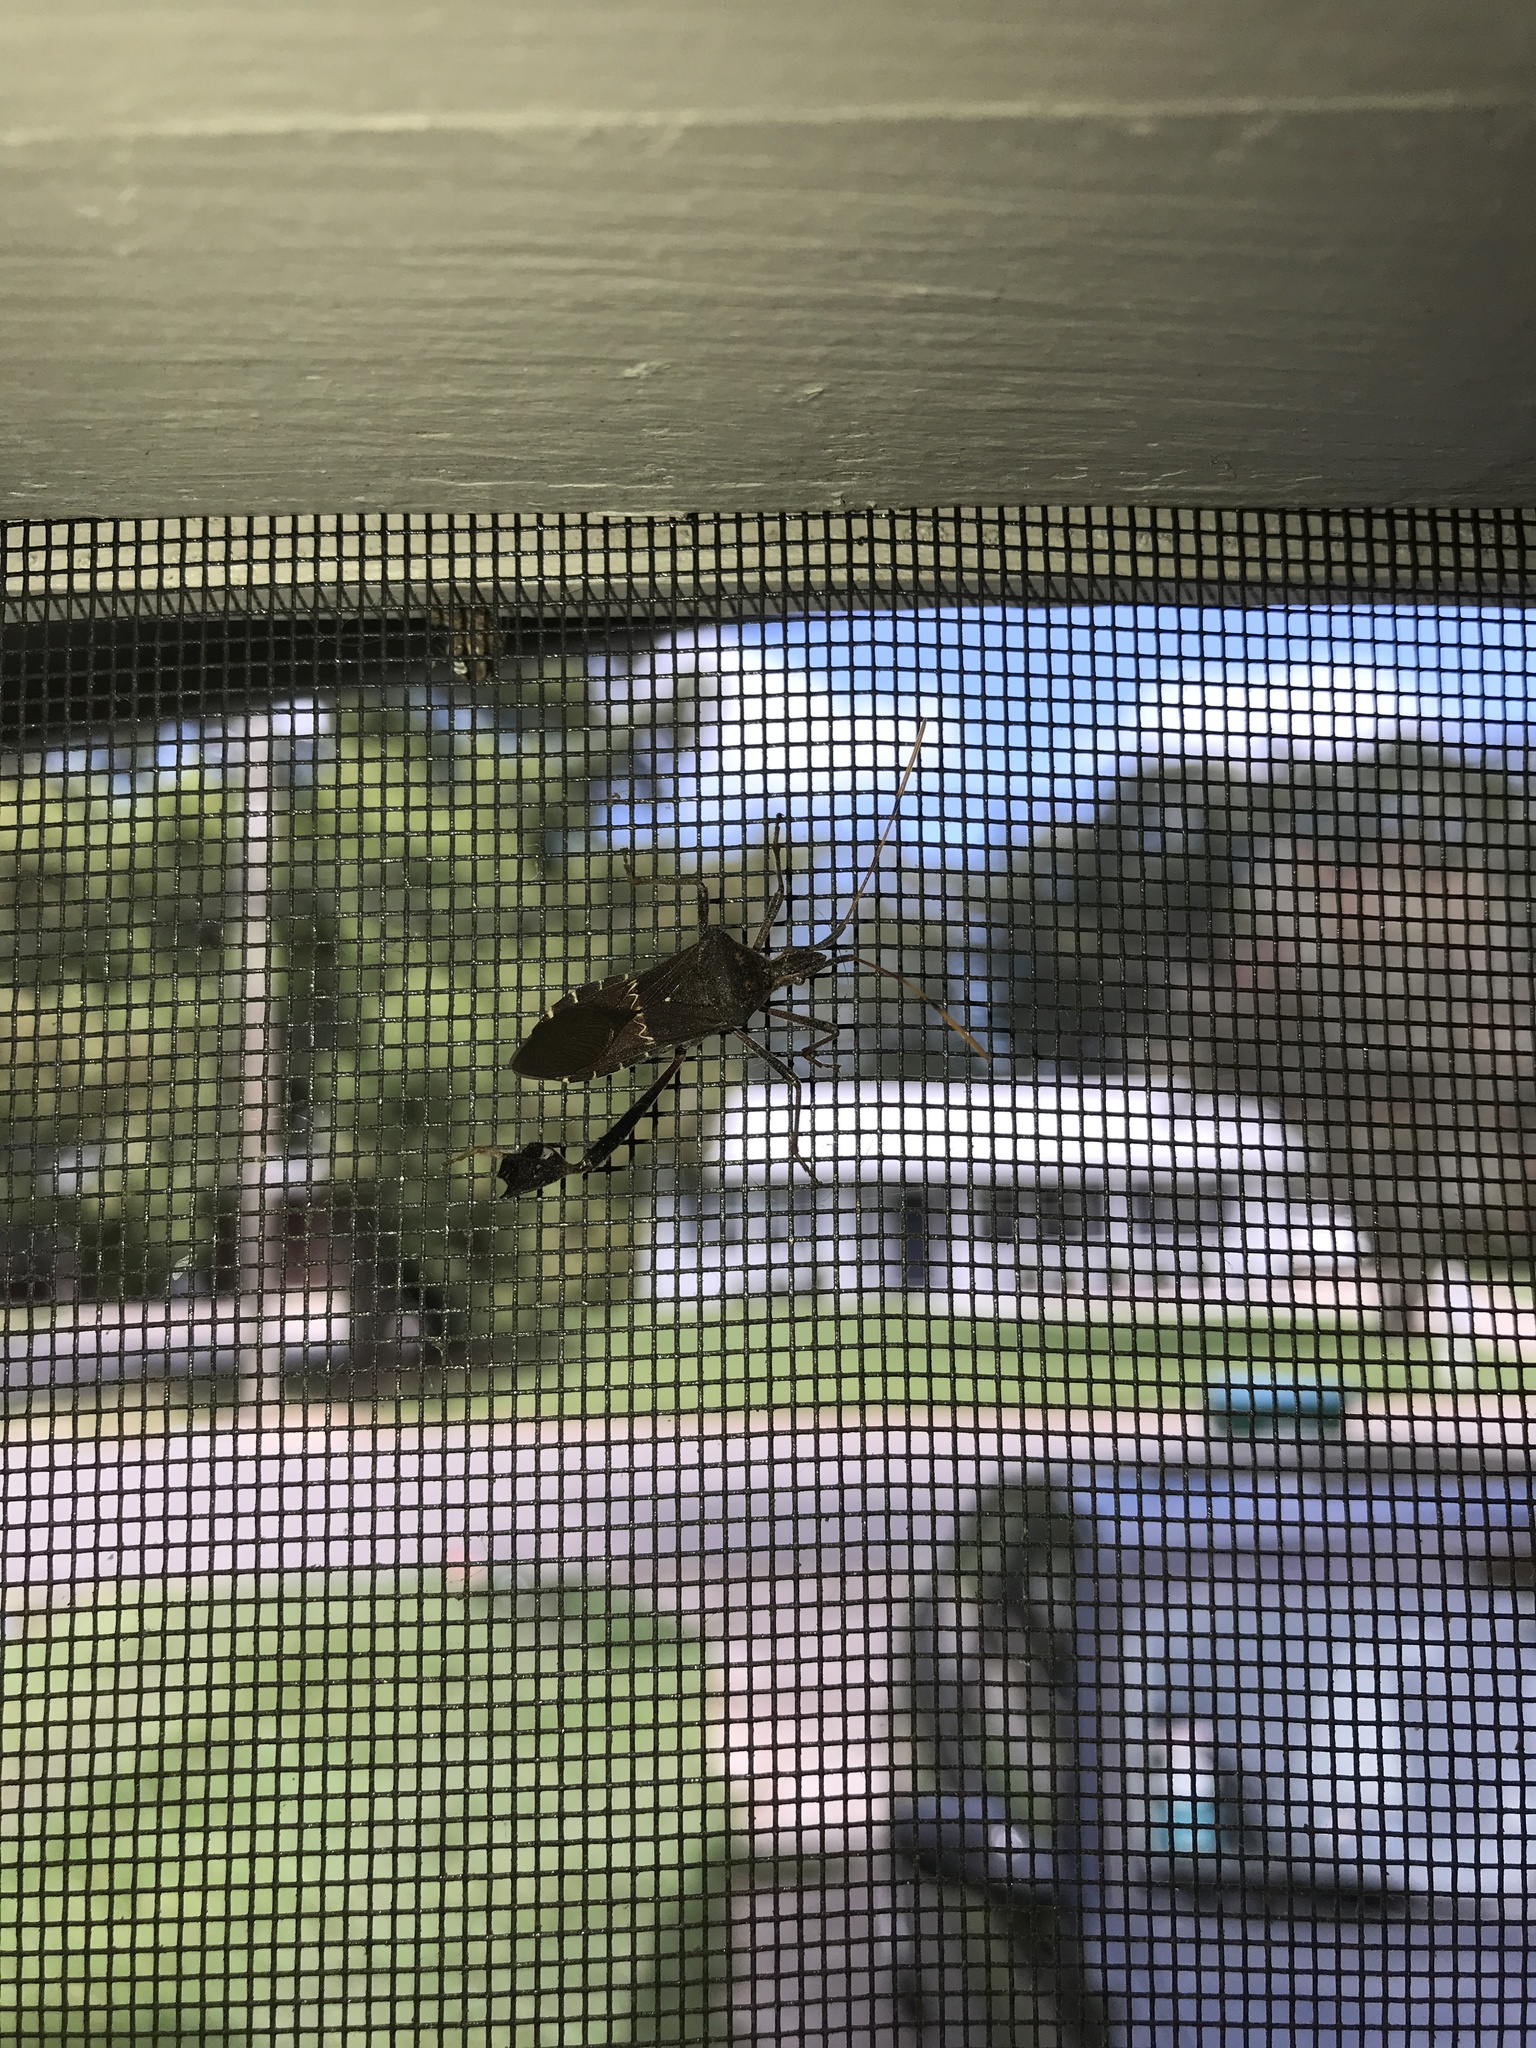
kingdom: Animalia
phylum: Arthropoda
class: Insecta
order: Hemiptera
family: Coreidae
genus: Leptoglossus
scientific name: Leptoglossus zonatus
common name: Large-legged bug
